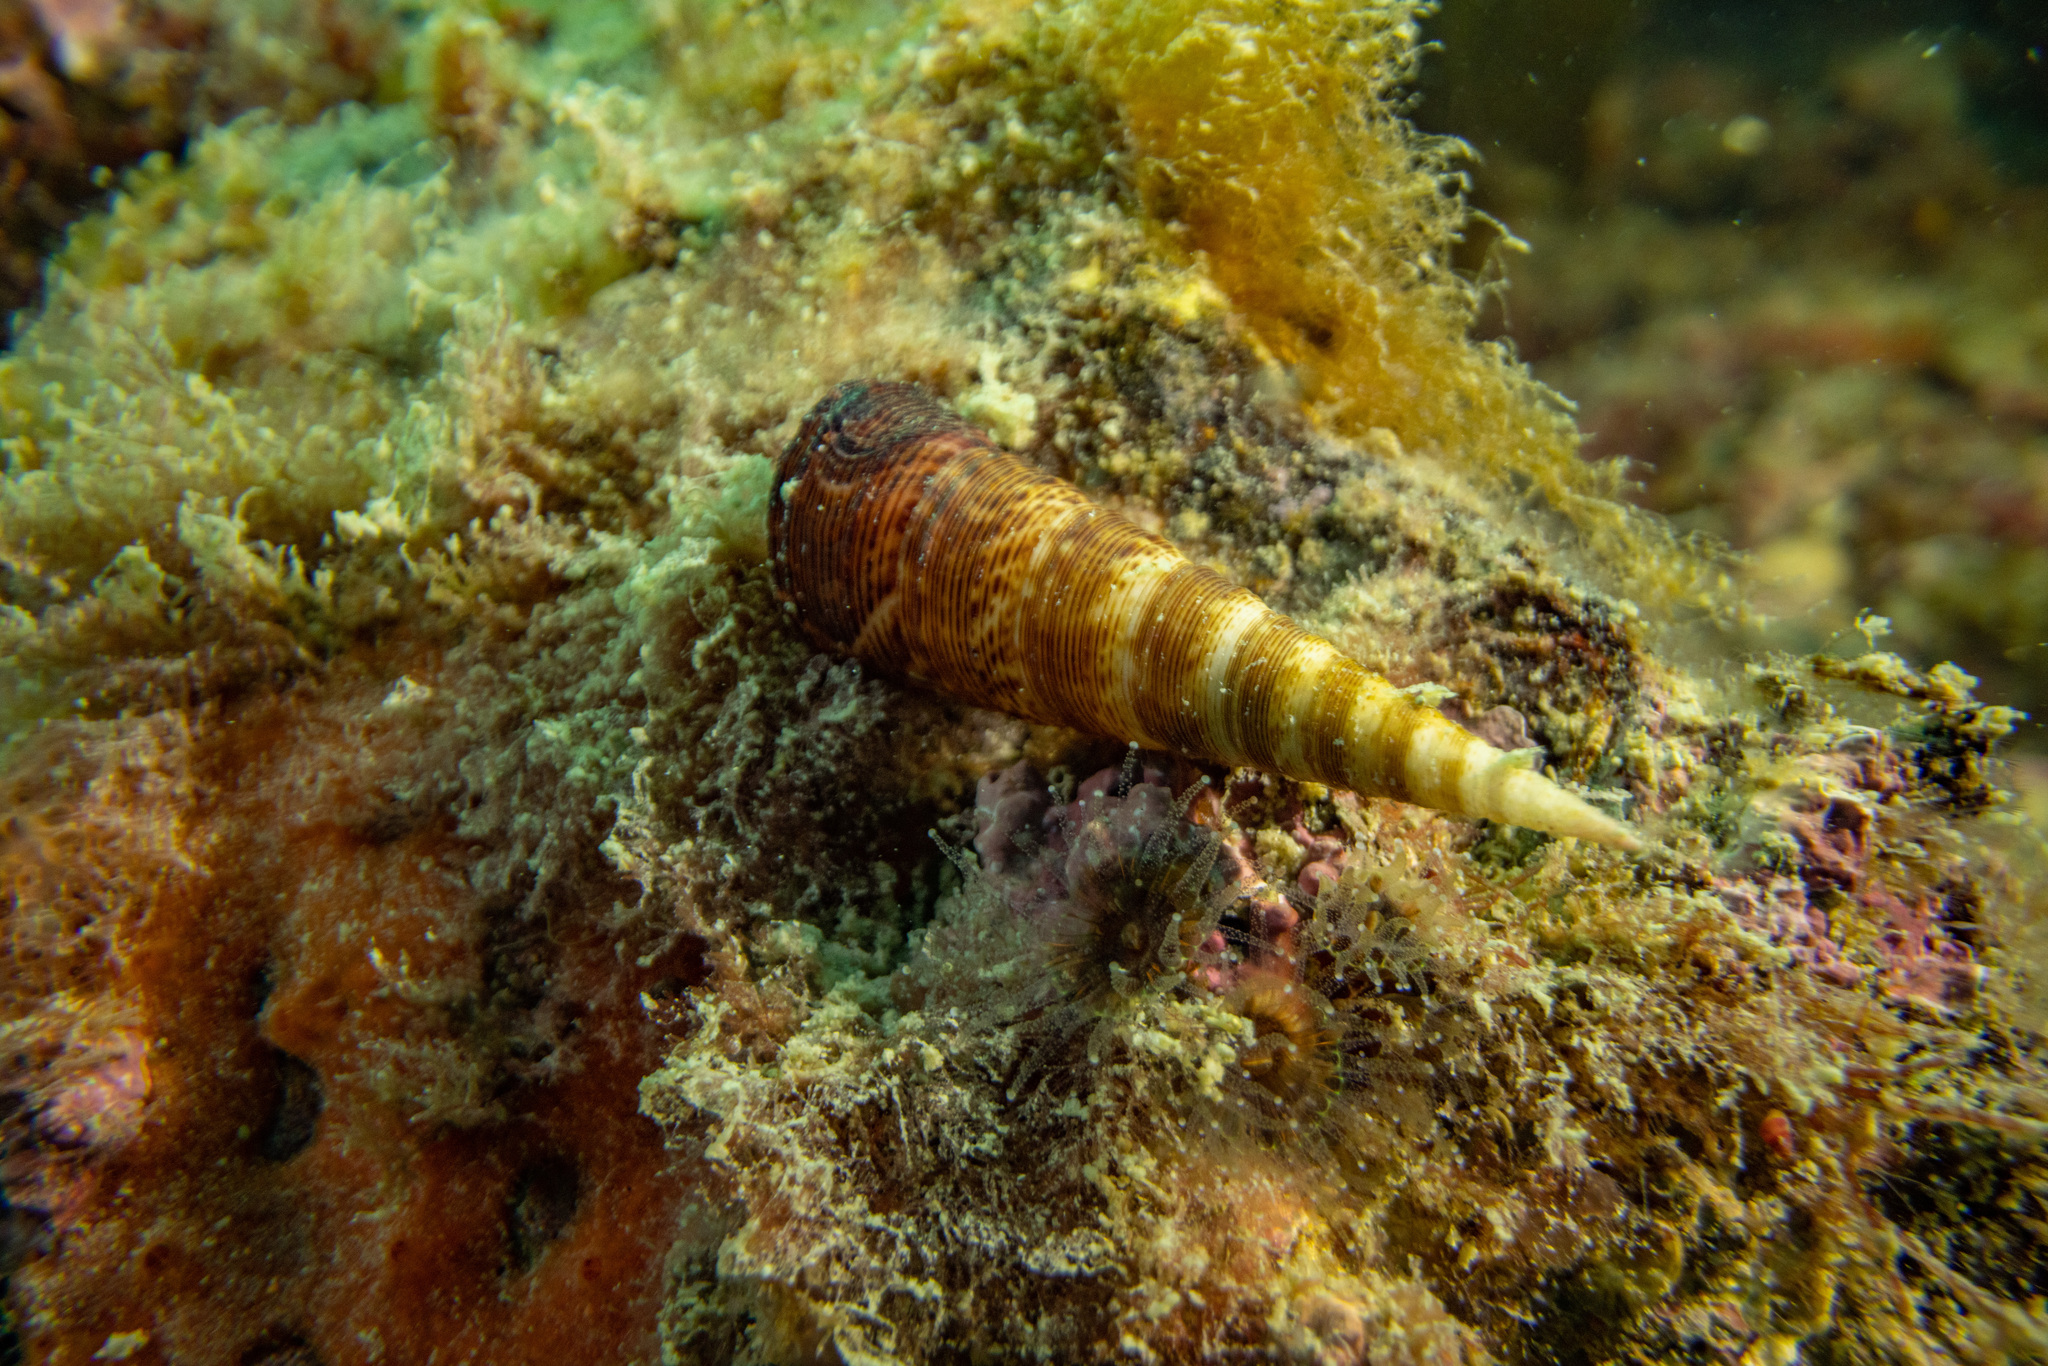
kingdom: Animalia
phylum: Mollusca
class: Gastropoda
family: Turritellidae
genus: Maoricolpus
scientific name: Maoricolpus roseus
